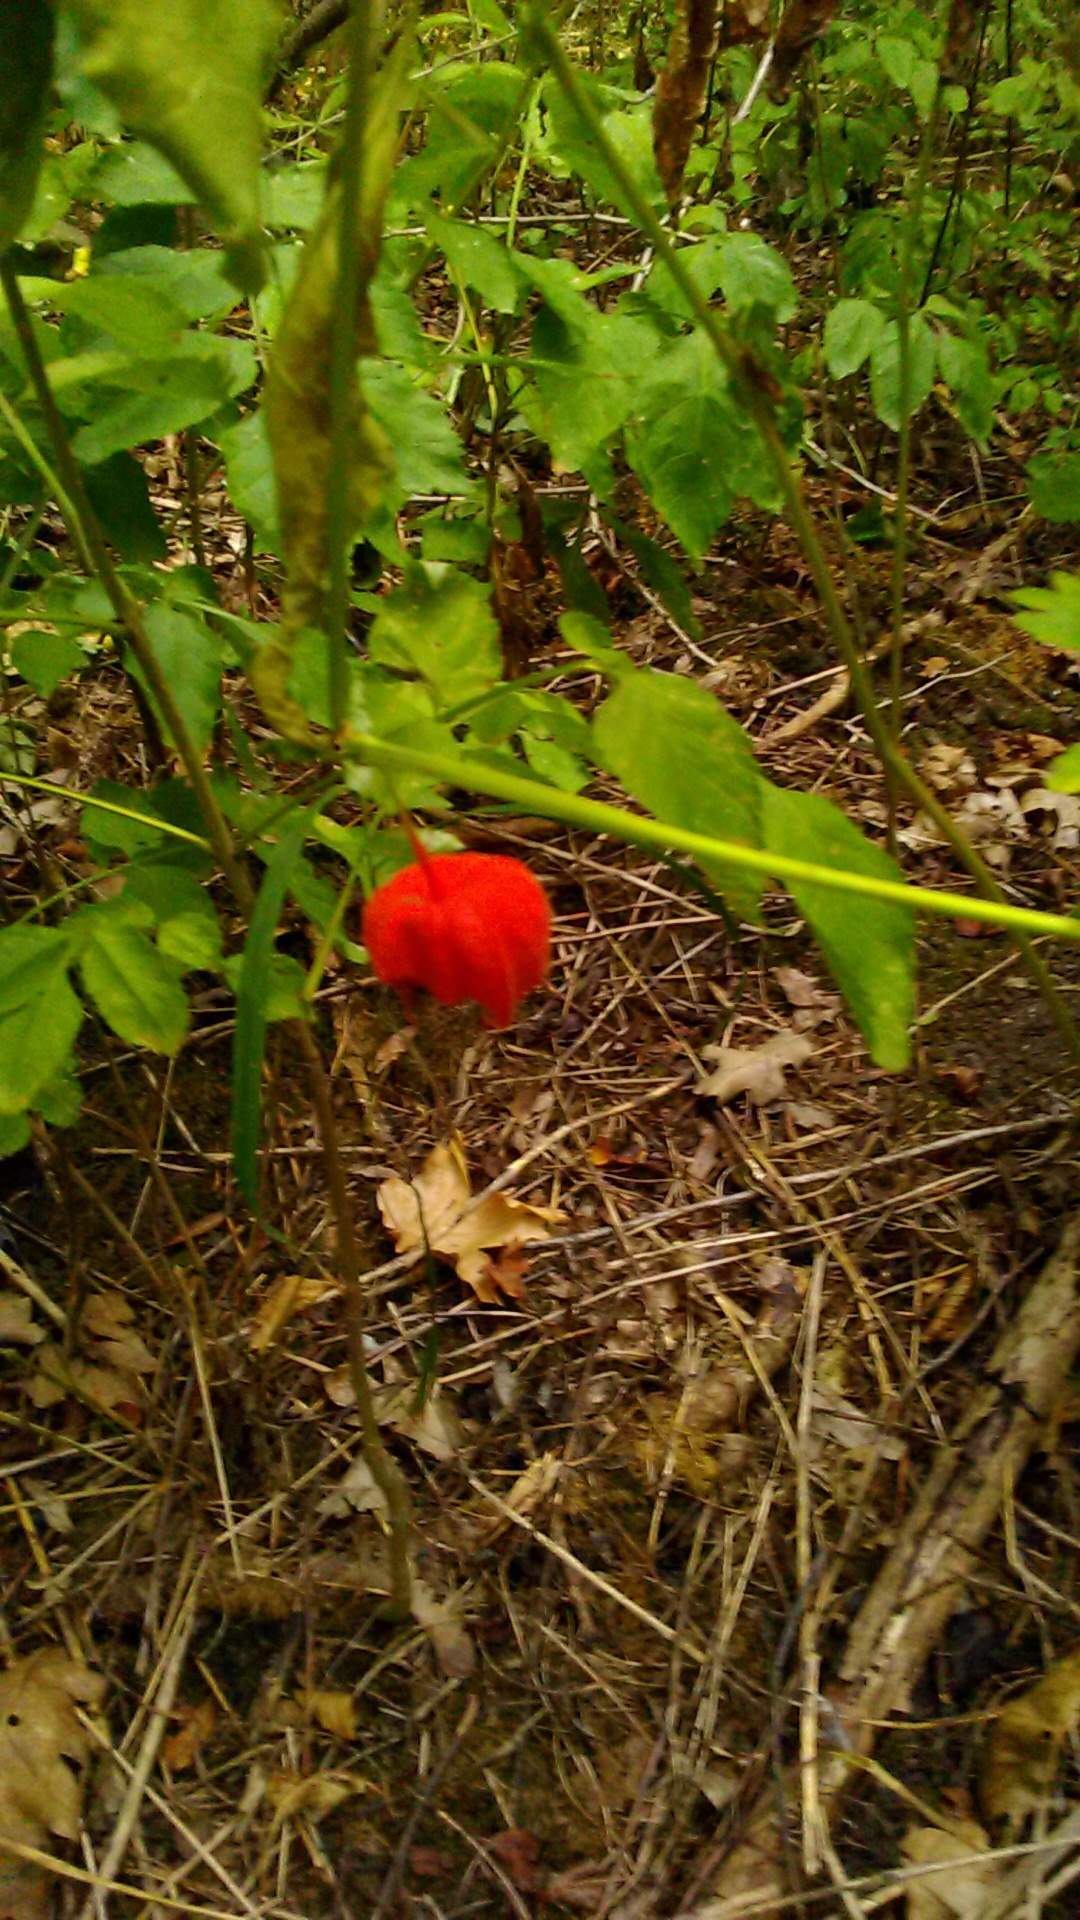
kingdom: Plantae
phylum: Tracheophyta
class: Magnoliopsida
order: Solanales
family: Solanaceae
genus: Alkekengi
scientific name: Alkekengi officinarum
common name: Japanese-lantern
